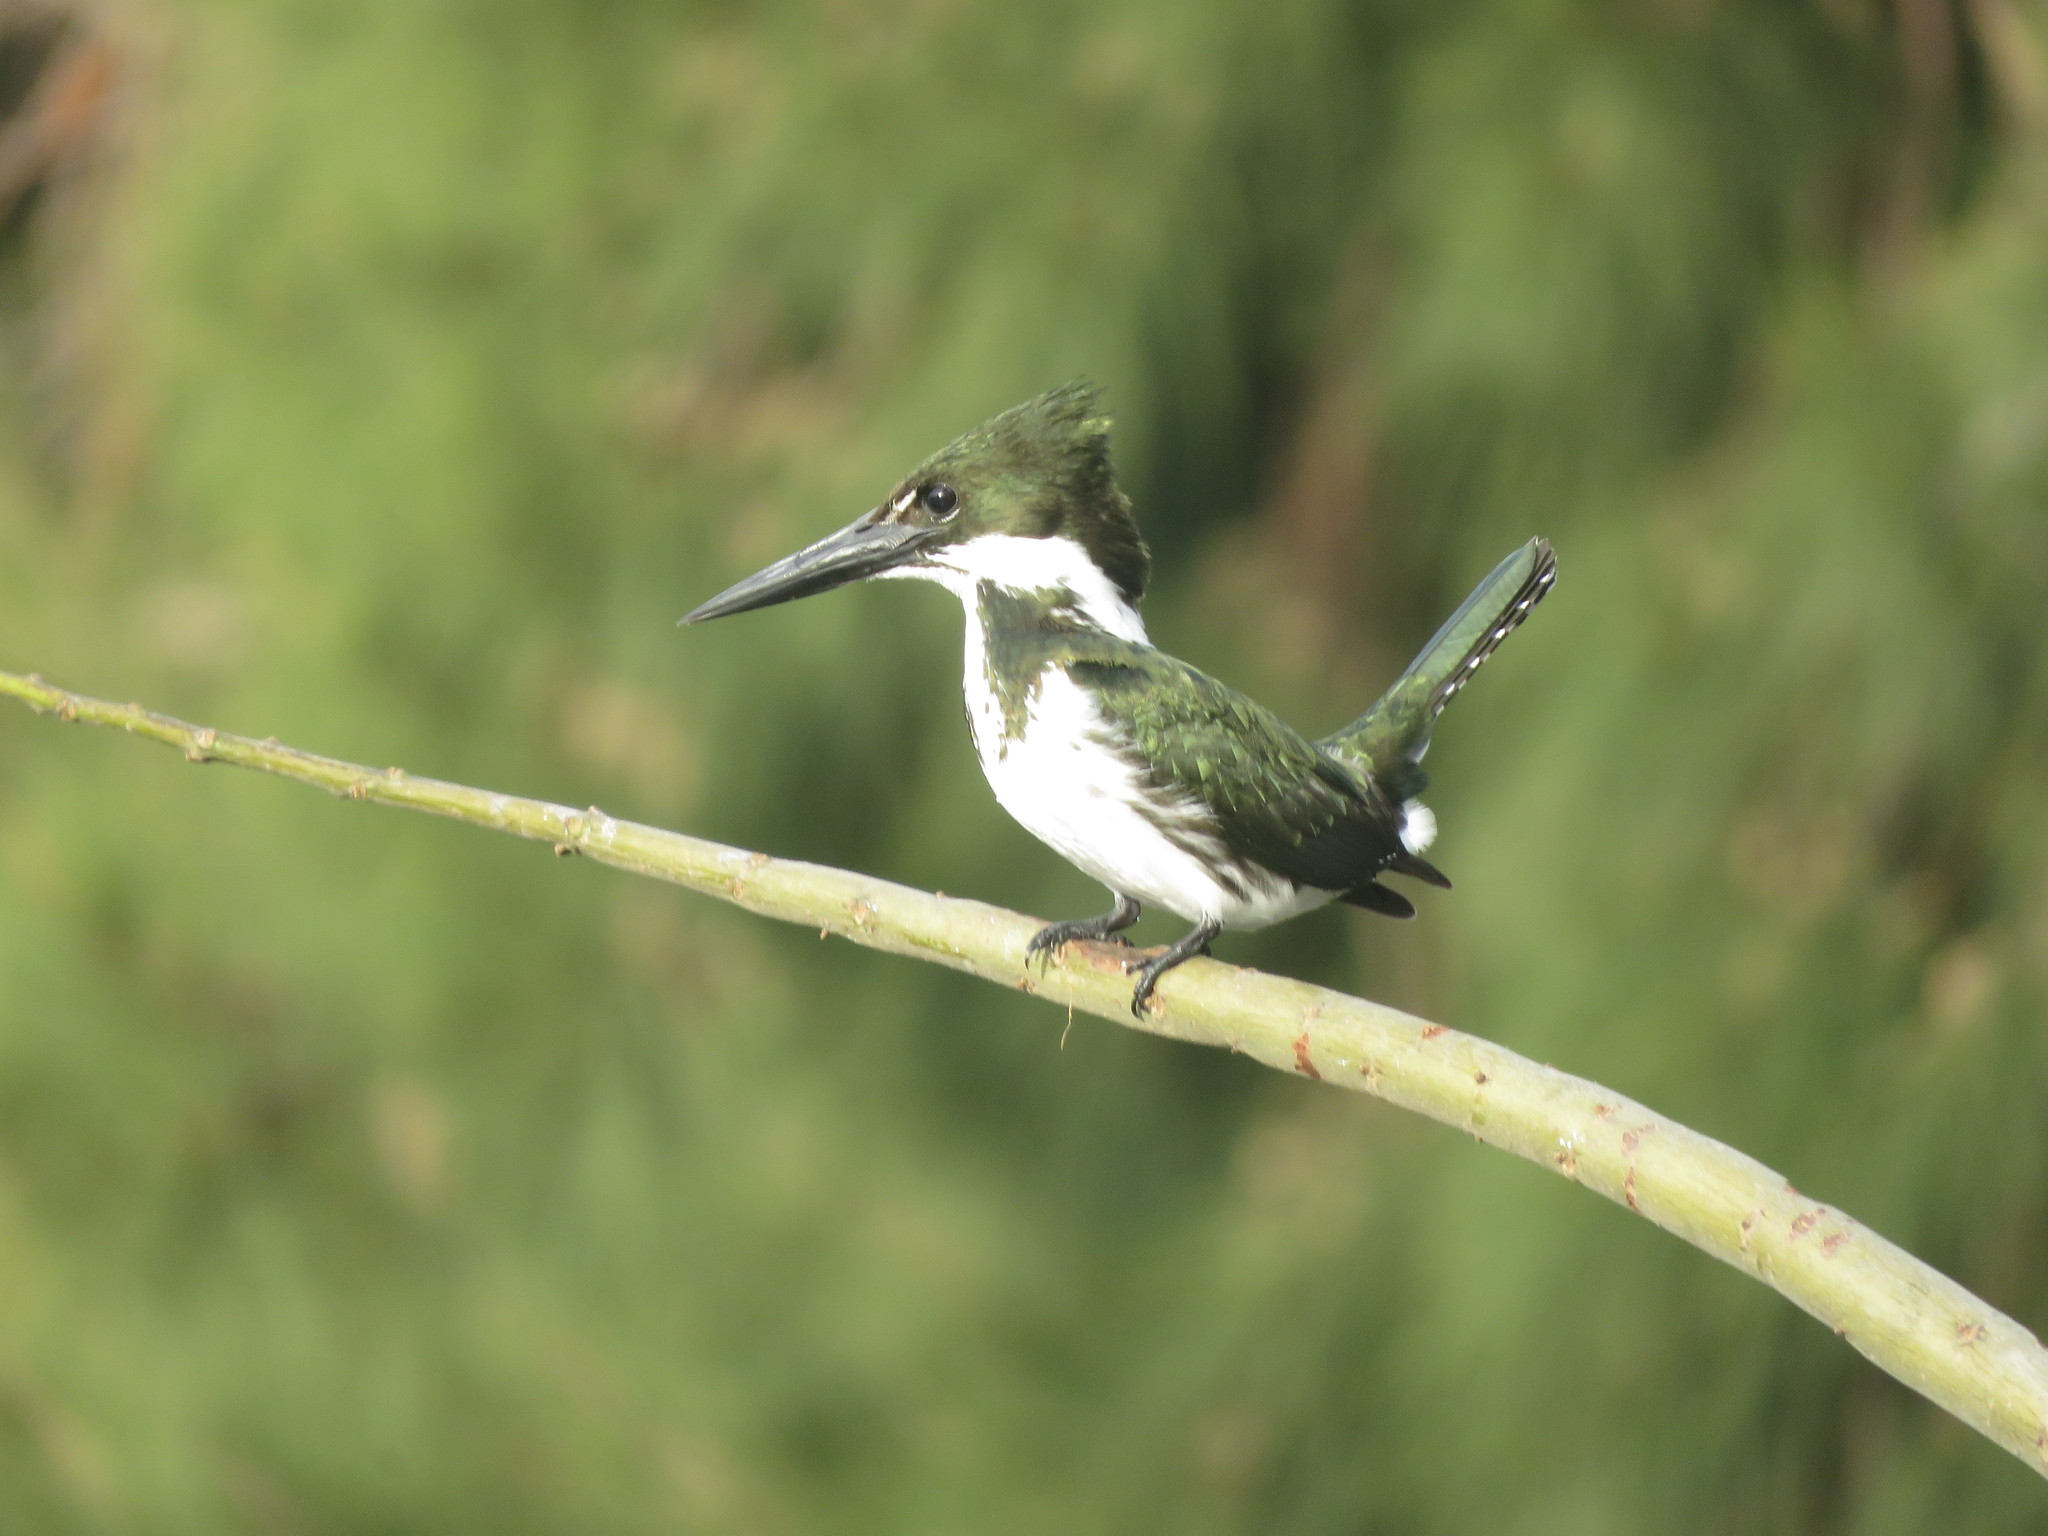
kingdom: Animalia
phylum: Chordata
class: Aves
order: Coraciiformes
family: Alcedinidae
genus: Chloroceryle
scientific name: Chloroceryle amazona
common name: Amazon kingfisher
